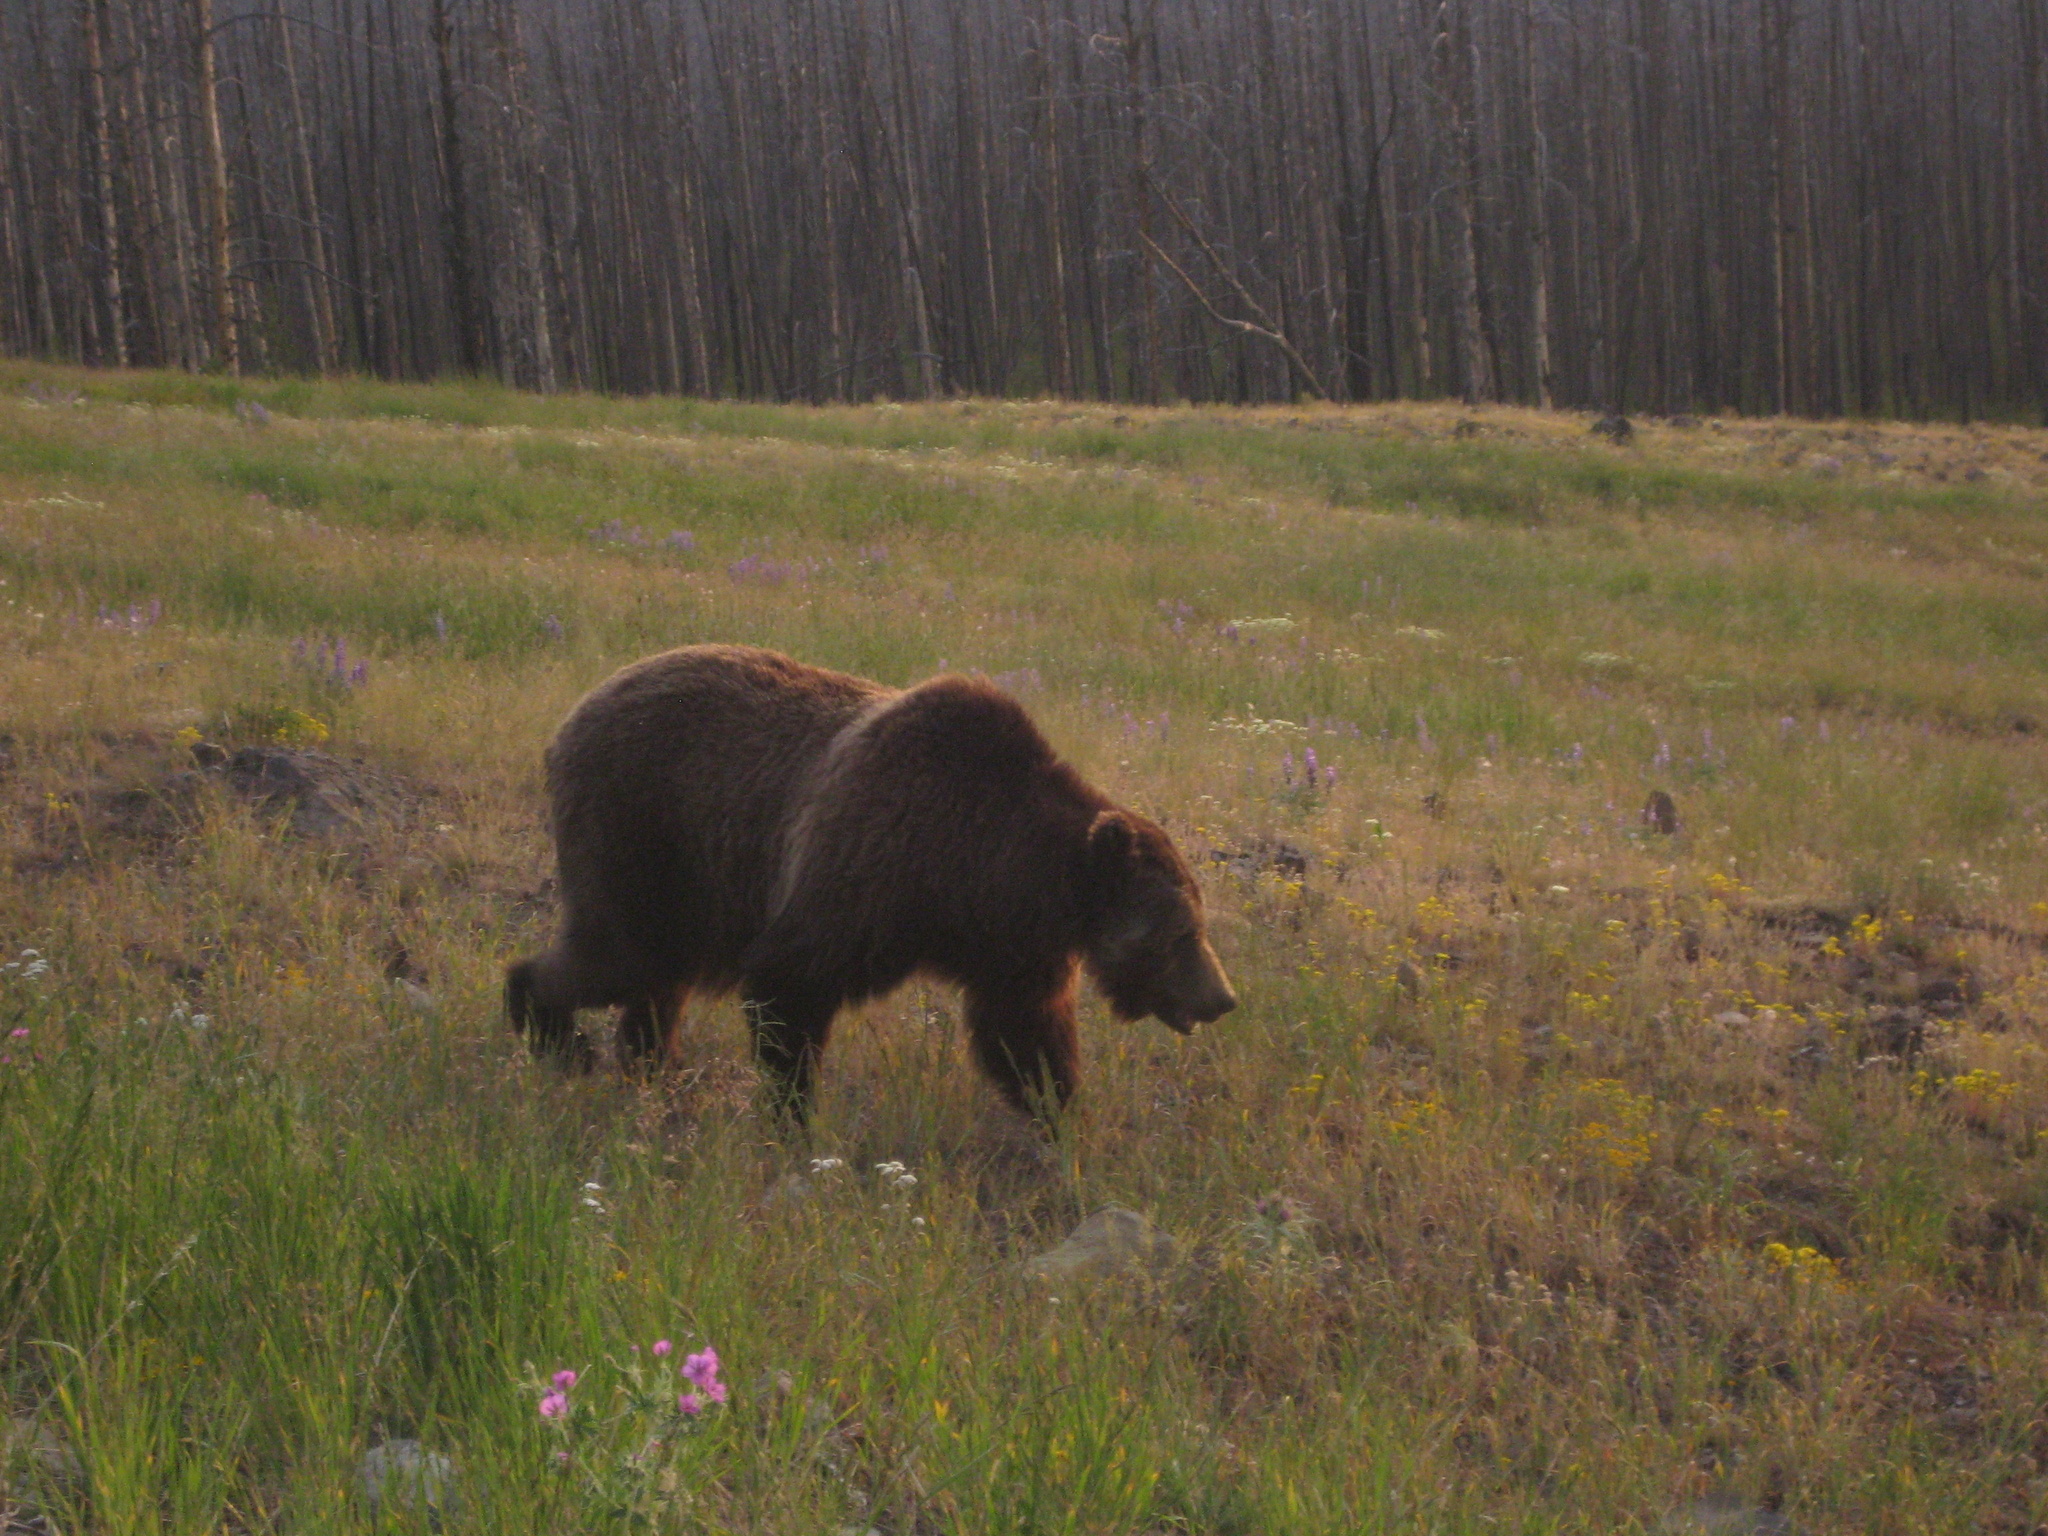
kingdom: Animalia
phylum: Chordata
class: Mammalia
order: Carnivora
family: Ursidae
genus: Ursus
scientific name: Ursus arctos
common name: Brown bear
